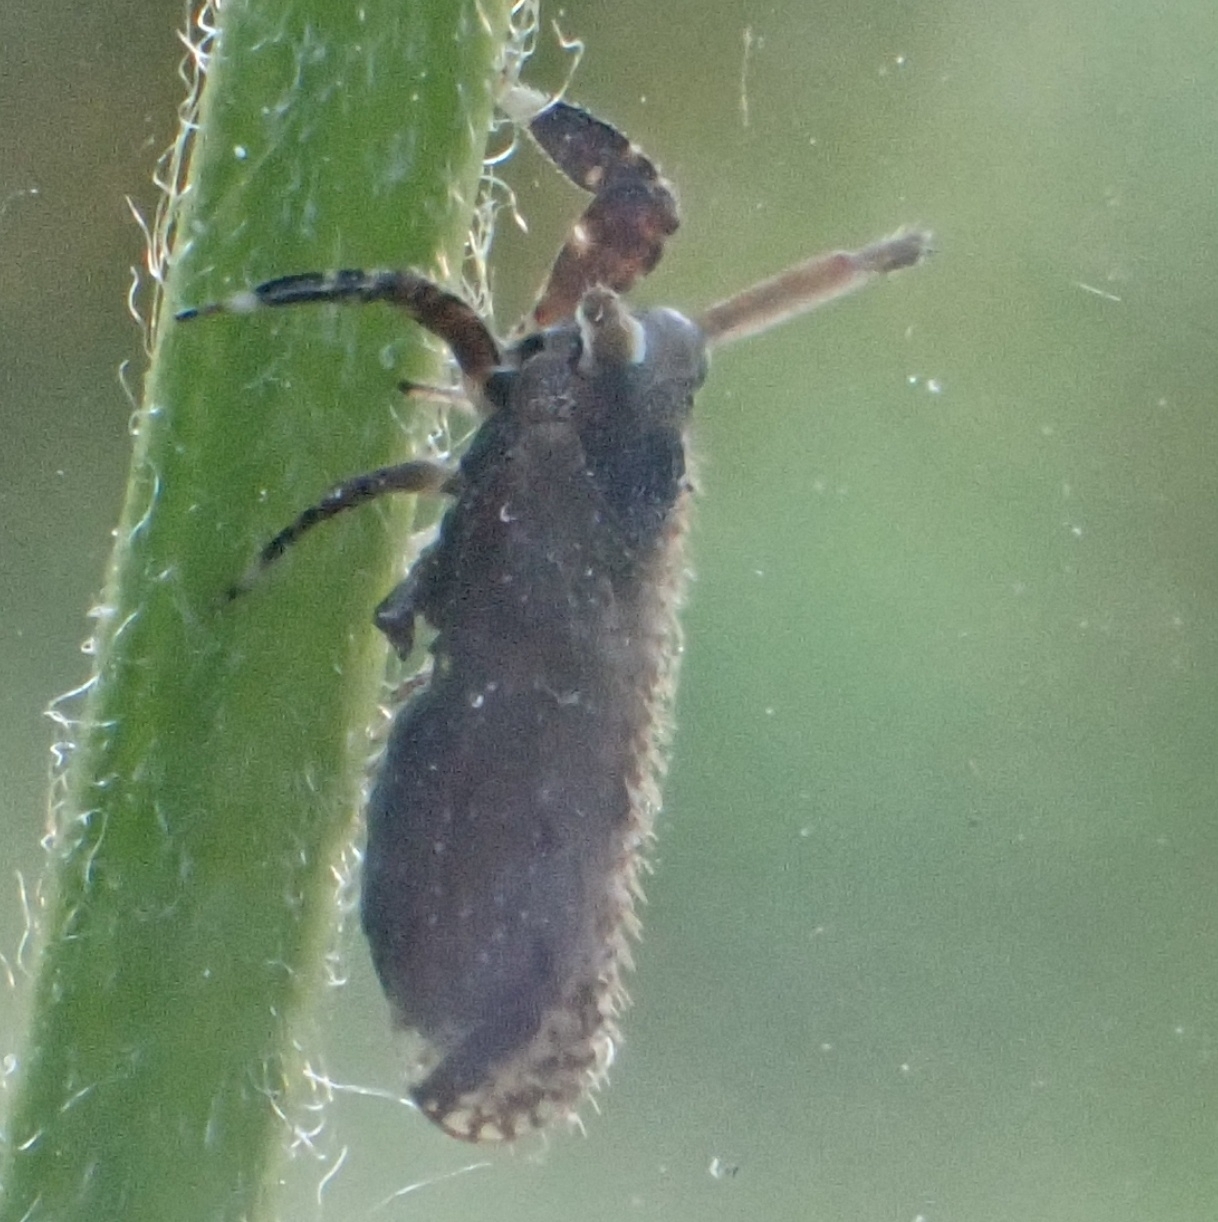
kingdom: Animalia
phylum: Arthropoda
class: Insecta
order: Hemiptera
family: Delphacidae
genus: Asiraca
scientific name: Asiraca clavicornis
